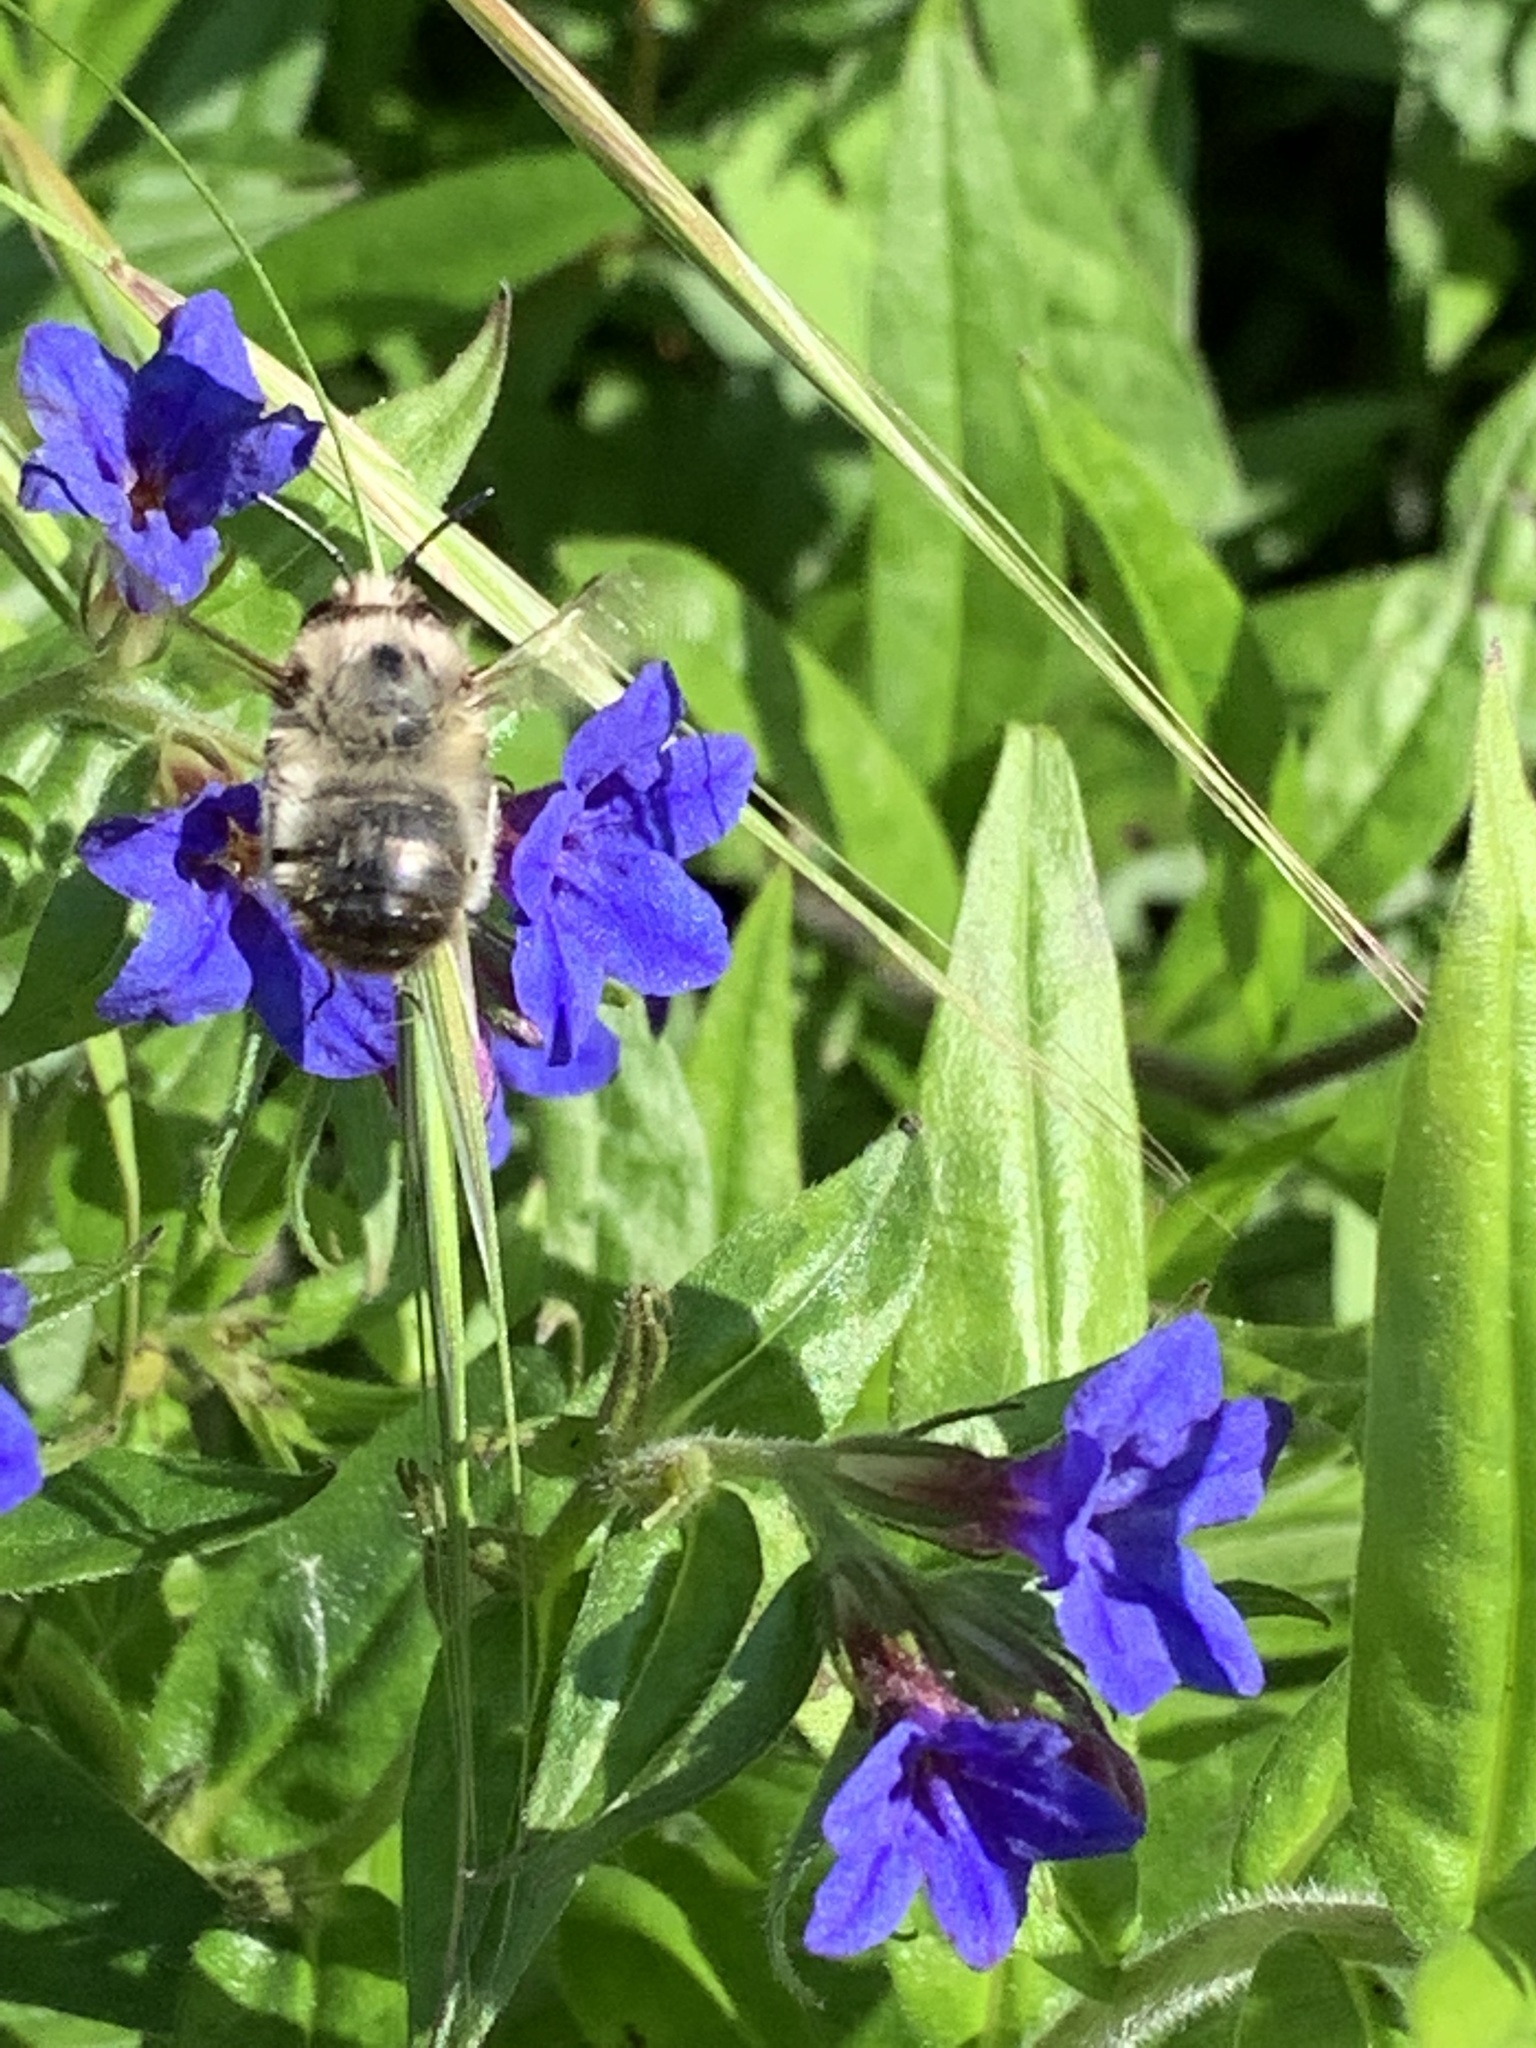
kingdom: Animalia
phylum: Arthropoda
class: Insecta
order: Hymenoptera
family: Apidae
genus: Anthophora
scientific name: Anthophora plumipes
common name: Hairy-footed flower bee
